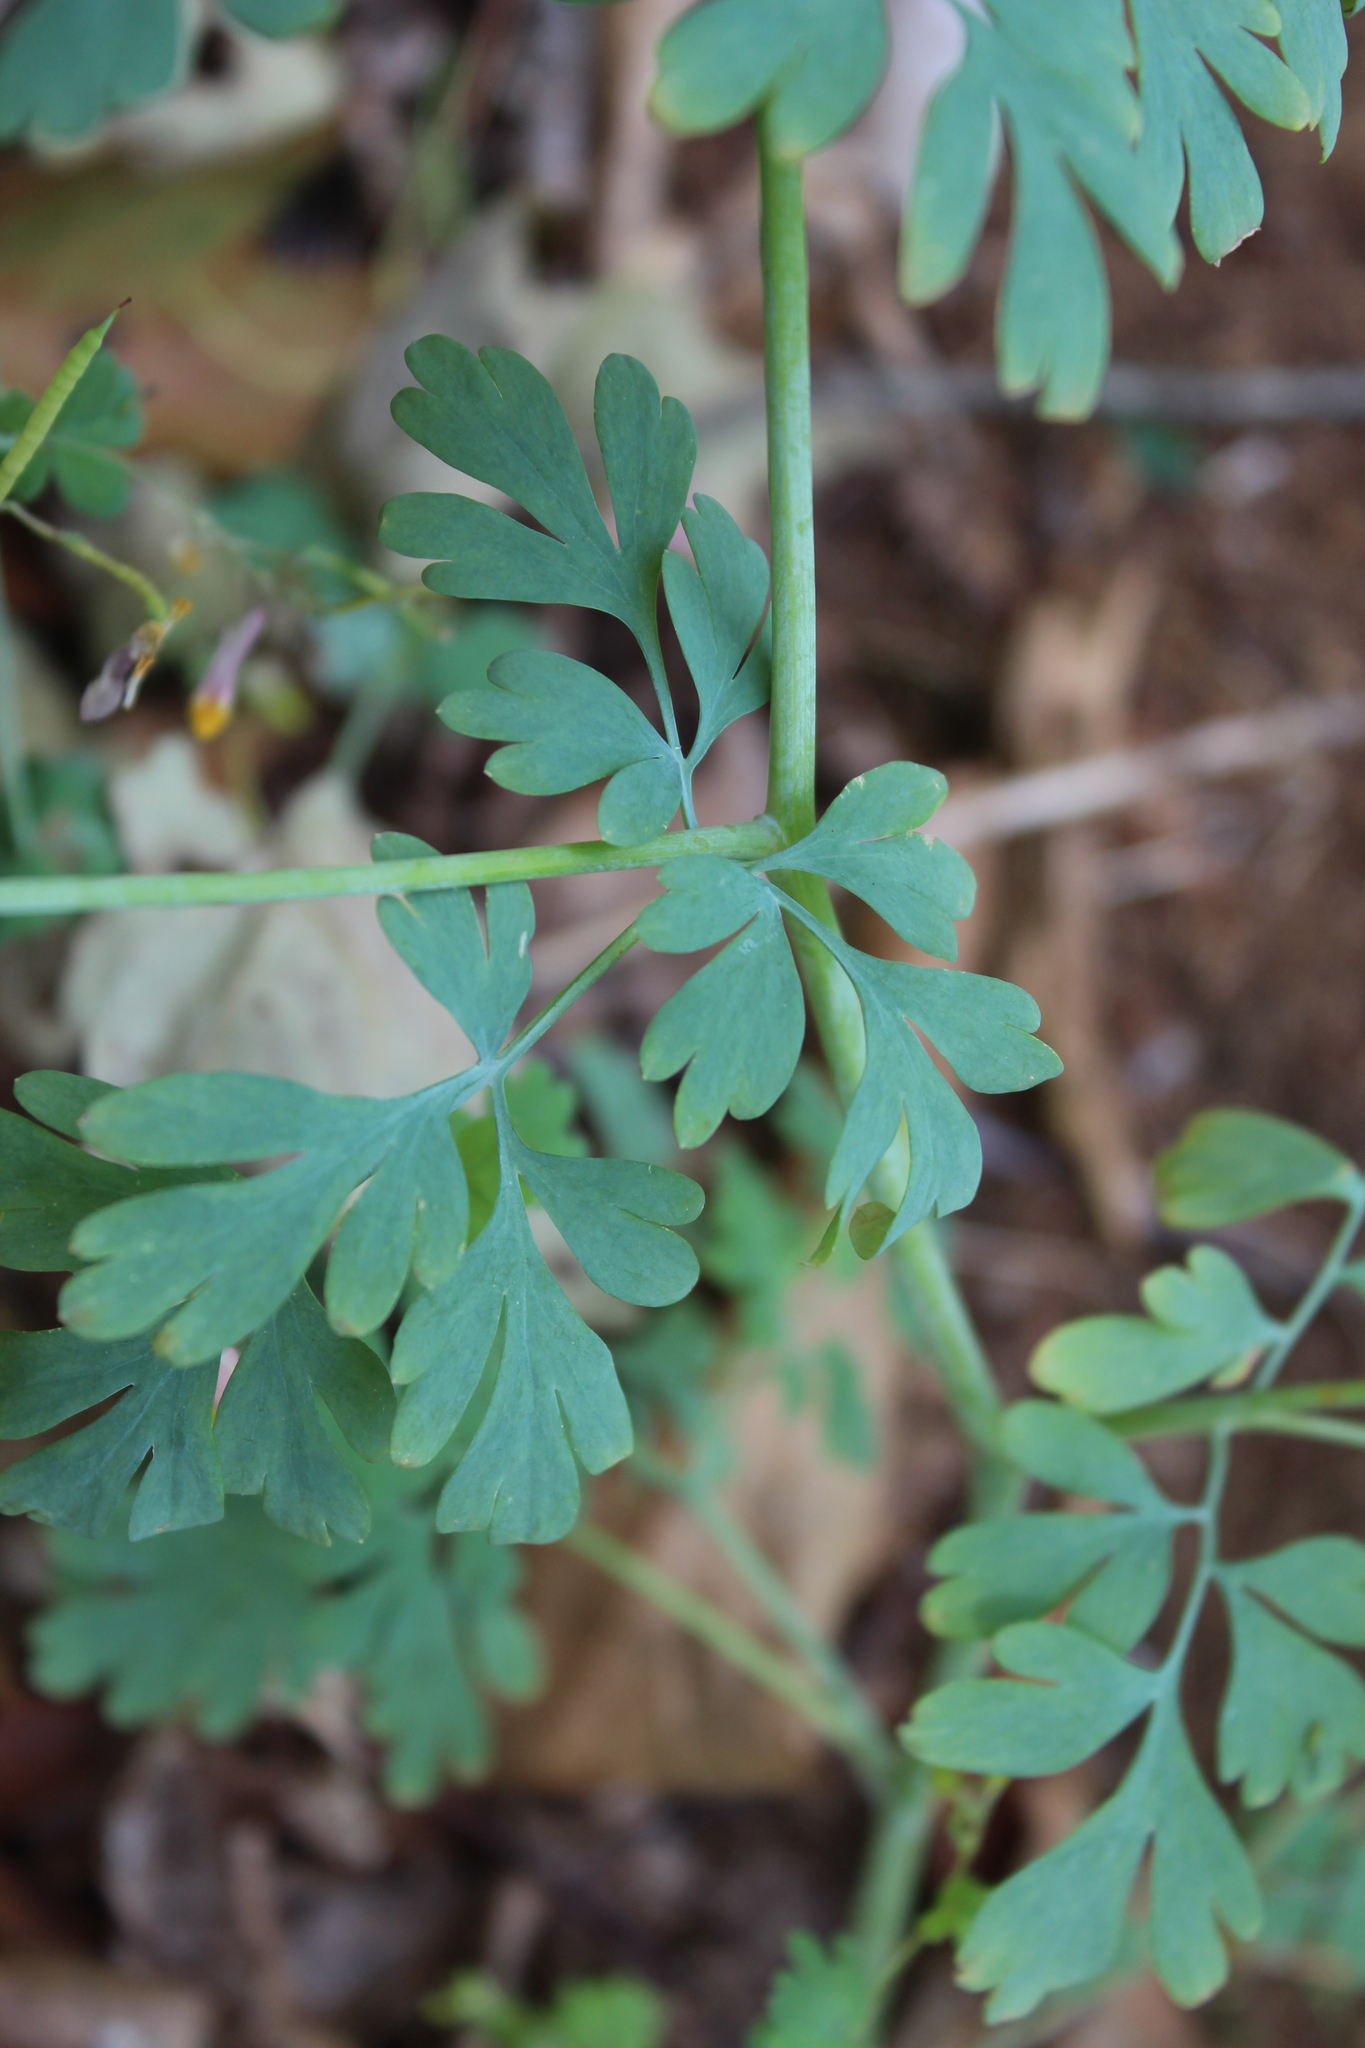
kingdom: Plantae
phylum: Tracheophyta
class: Magnoliopsida
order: Ranunculales
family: Papaveraceae
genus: Capnoides
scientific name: Capnoides sempervirens
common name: Rock harlequin
